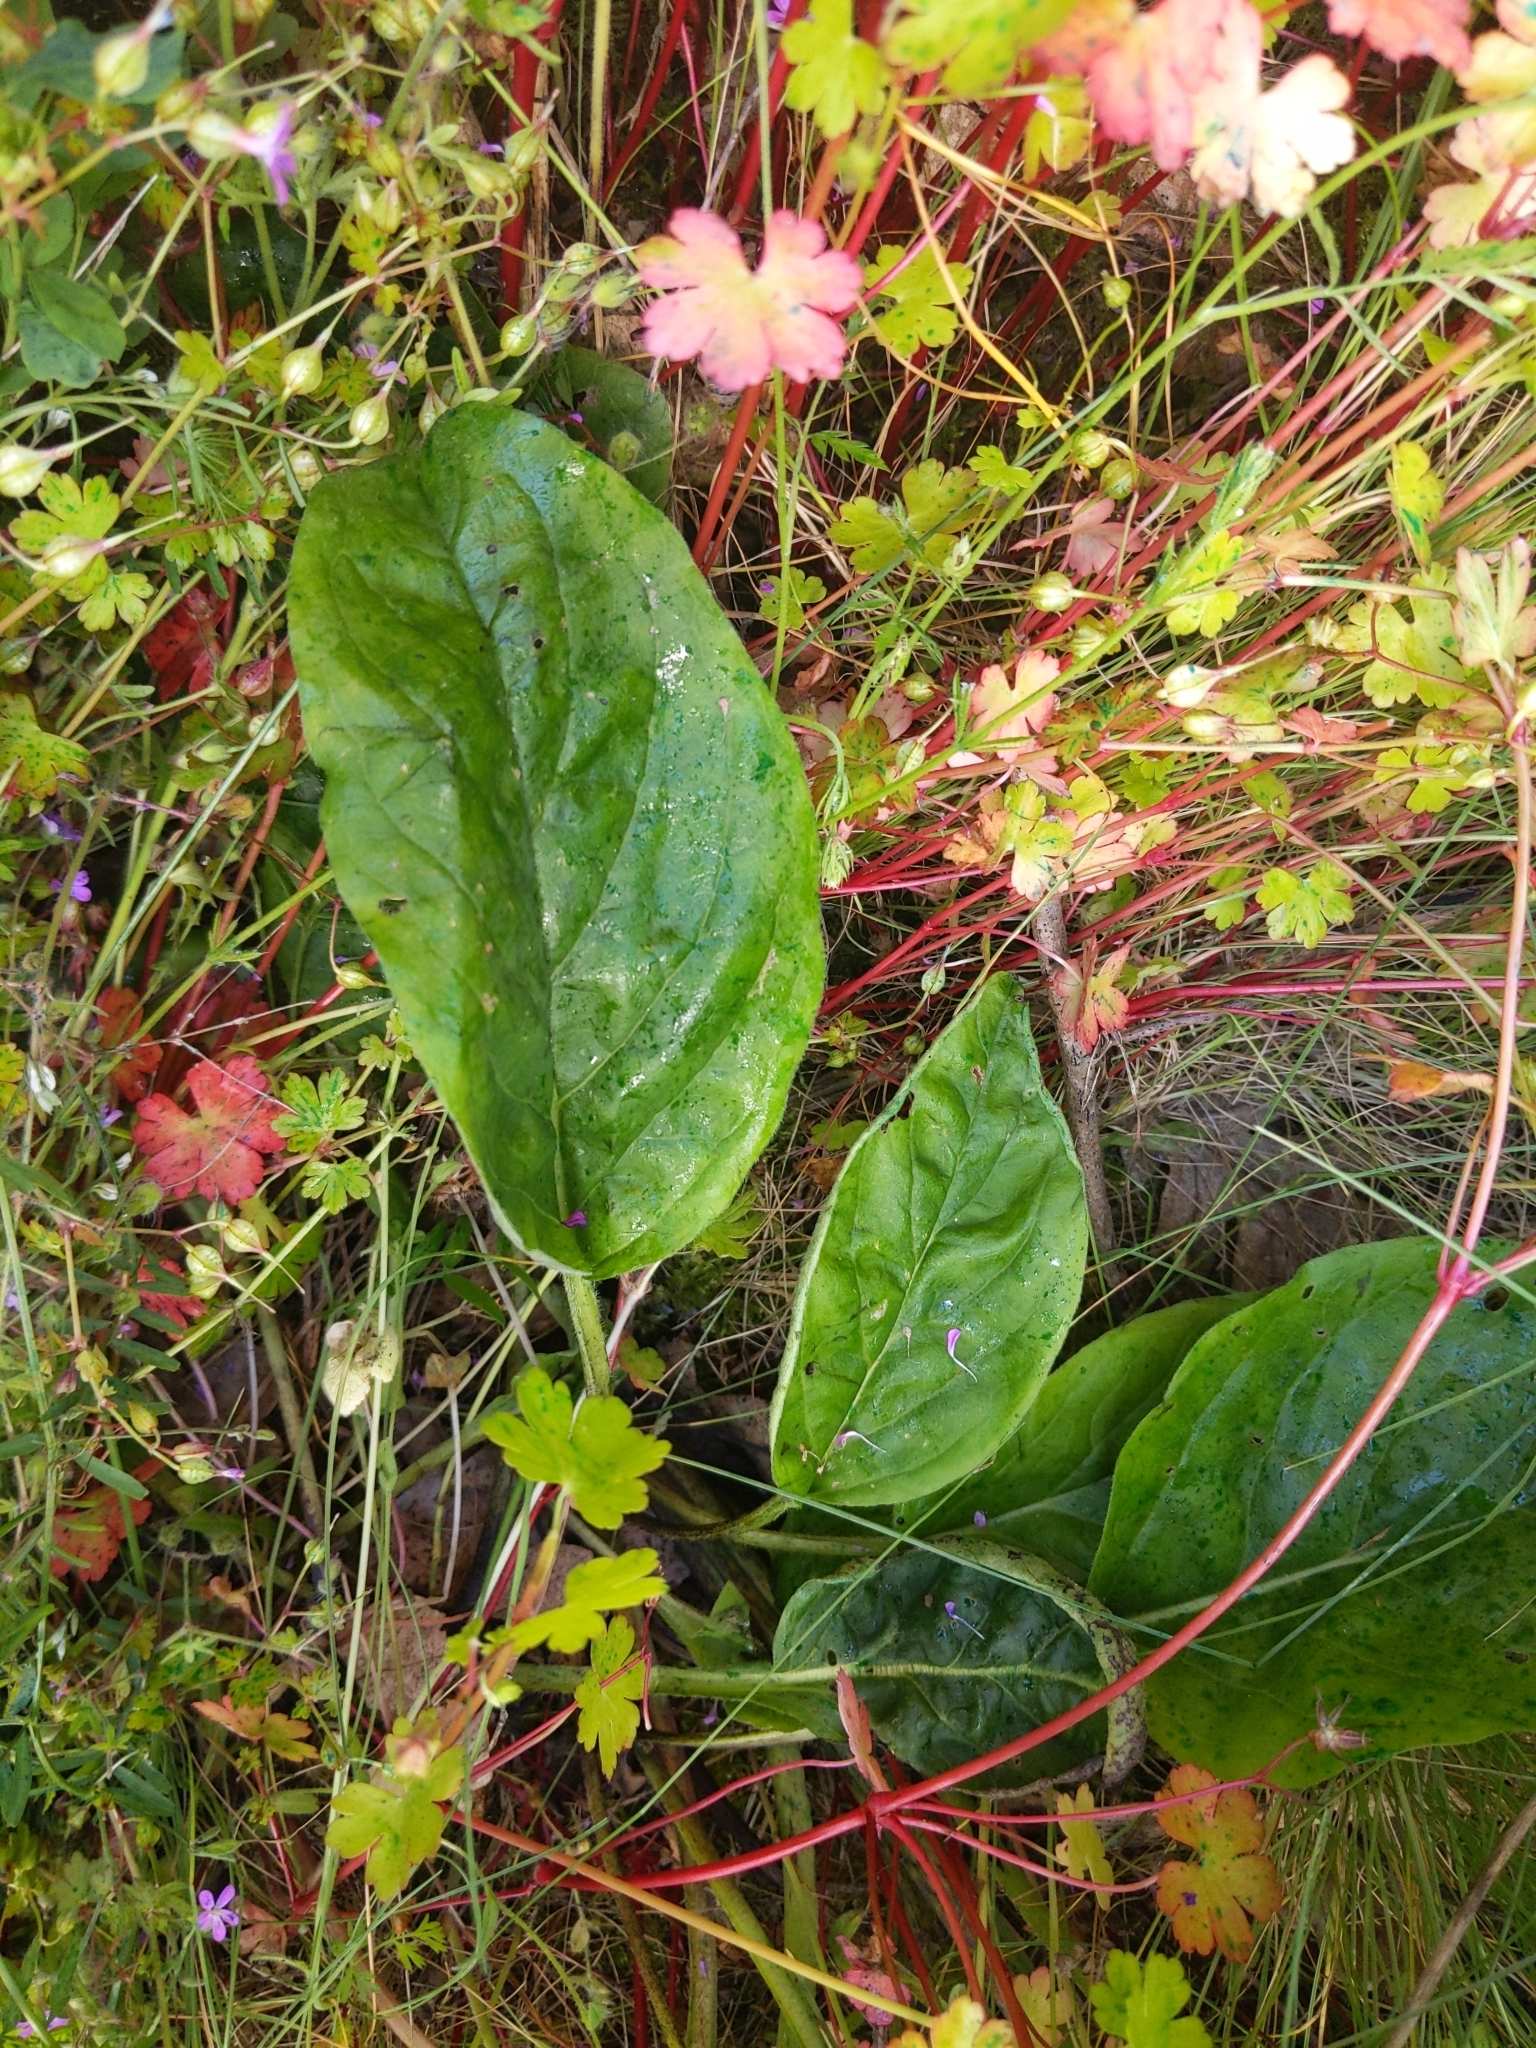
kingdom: Plantae
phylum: Tracheophyta
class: Magnoliopsida
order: Boraginales
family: Boraginaceae
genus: Adelinia
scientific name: Adelinia grande
